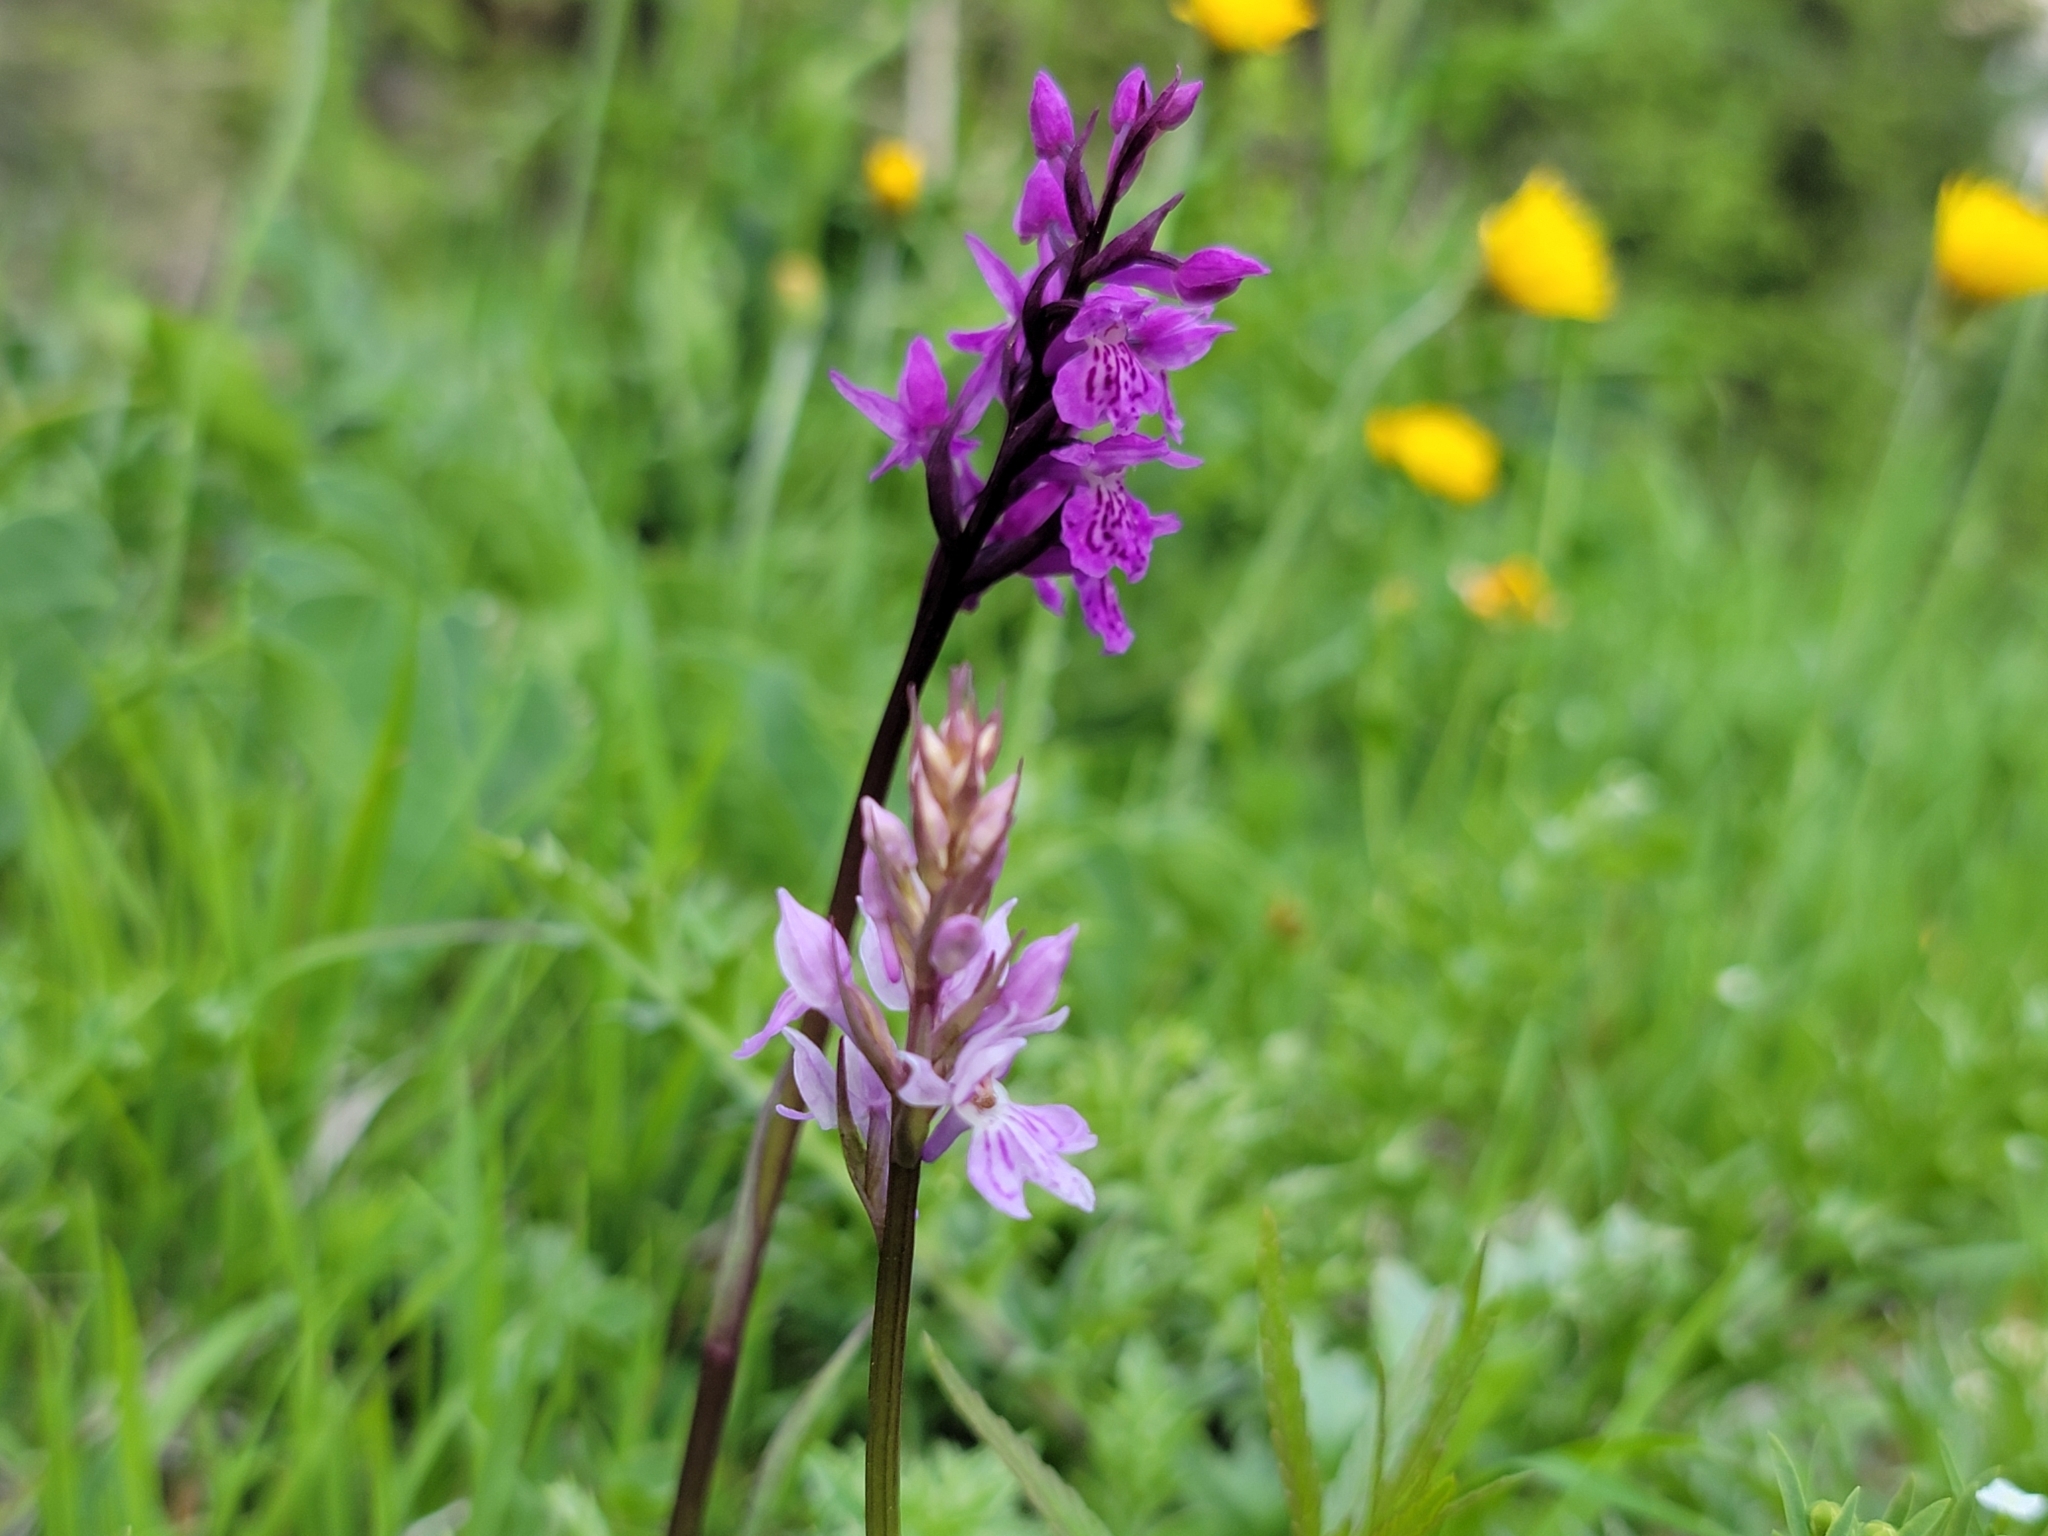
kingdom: Plantae
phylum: Tracheophyta
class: Liliopsida
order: Asparagales
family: Orchidaceae
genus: Dactylorhiza
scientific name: Dactylorhiza maculata
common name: Heath spotted-orchid
